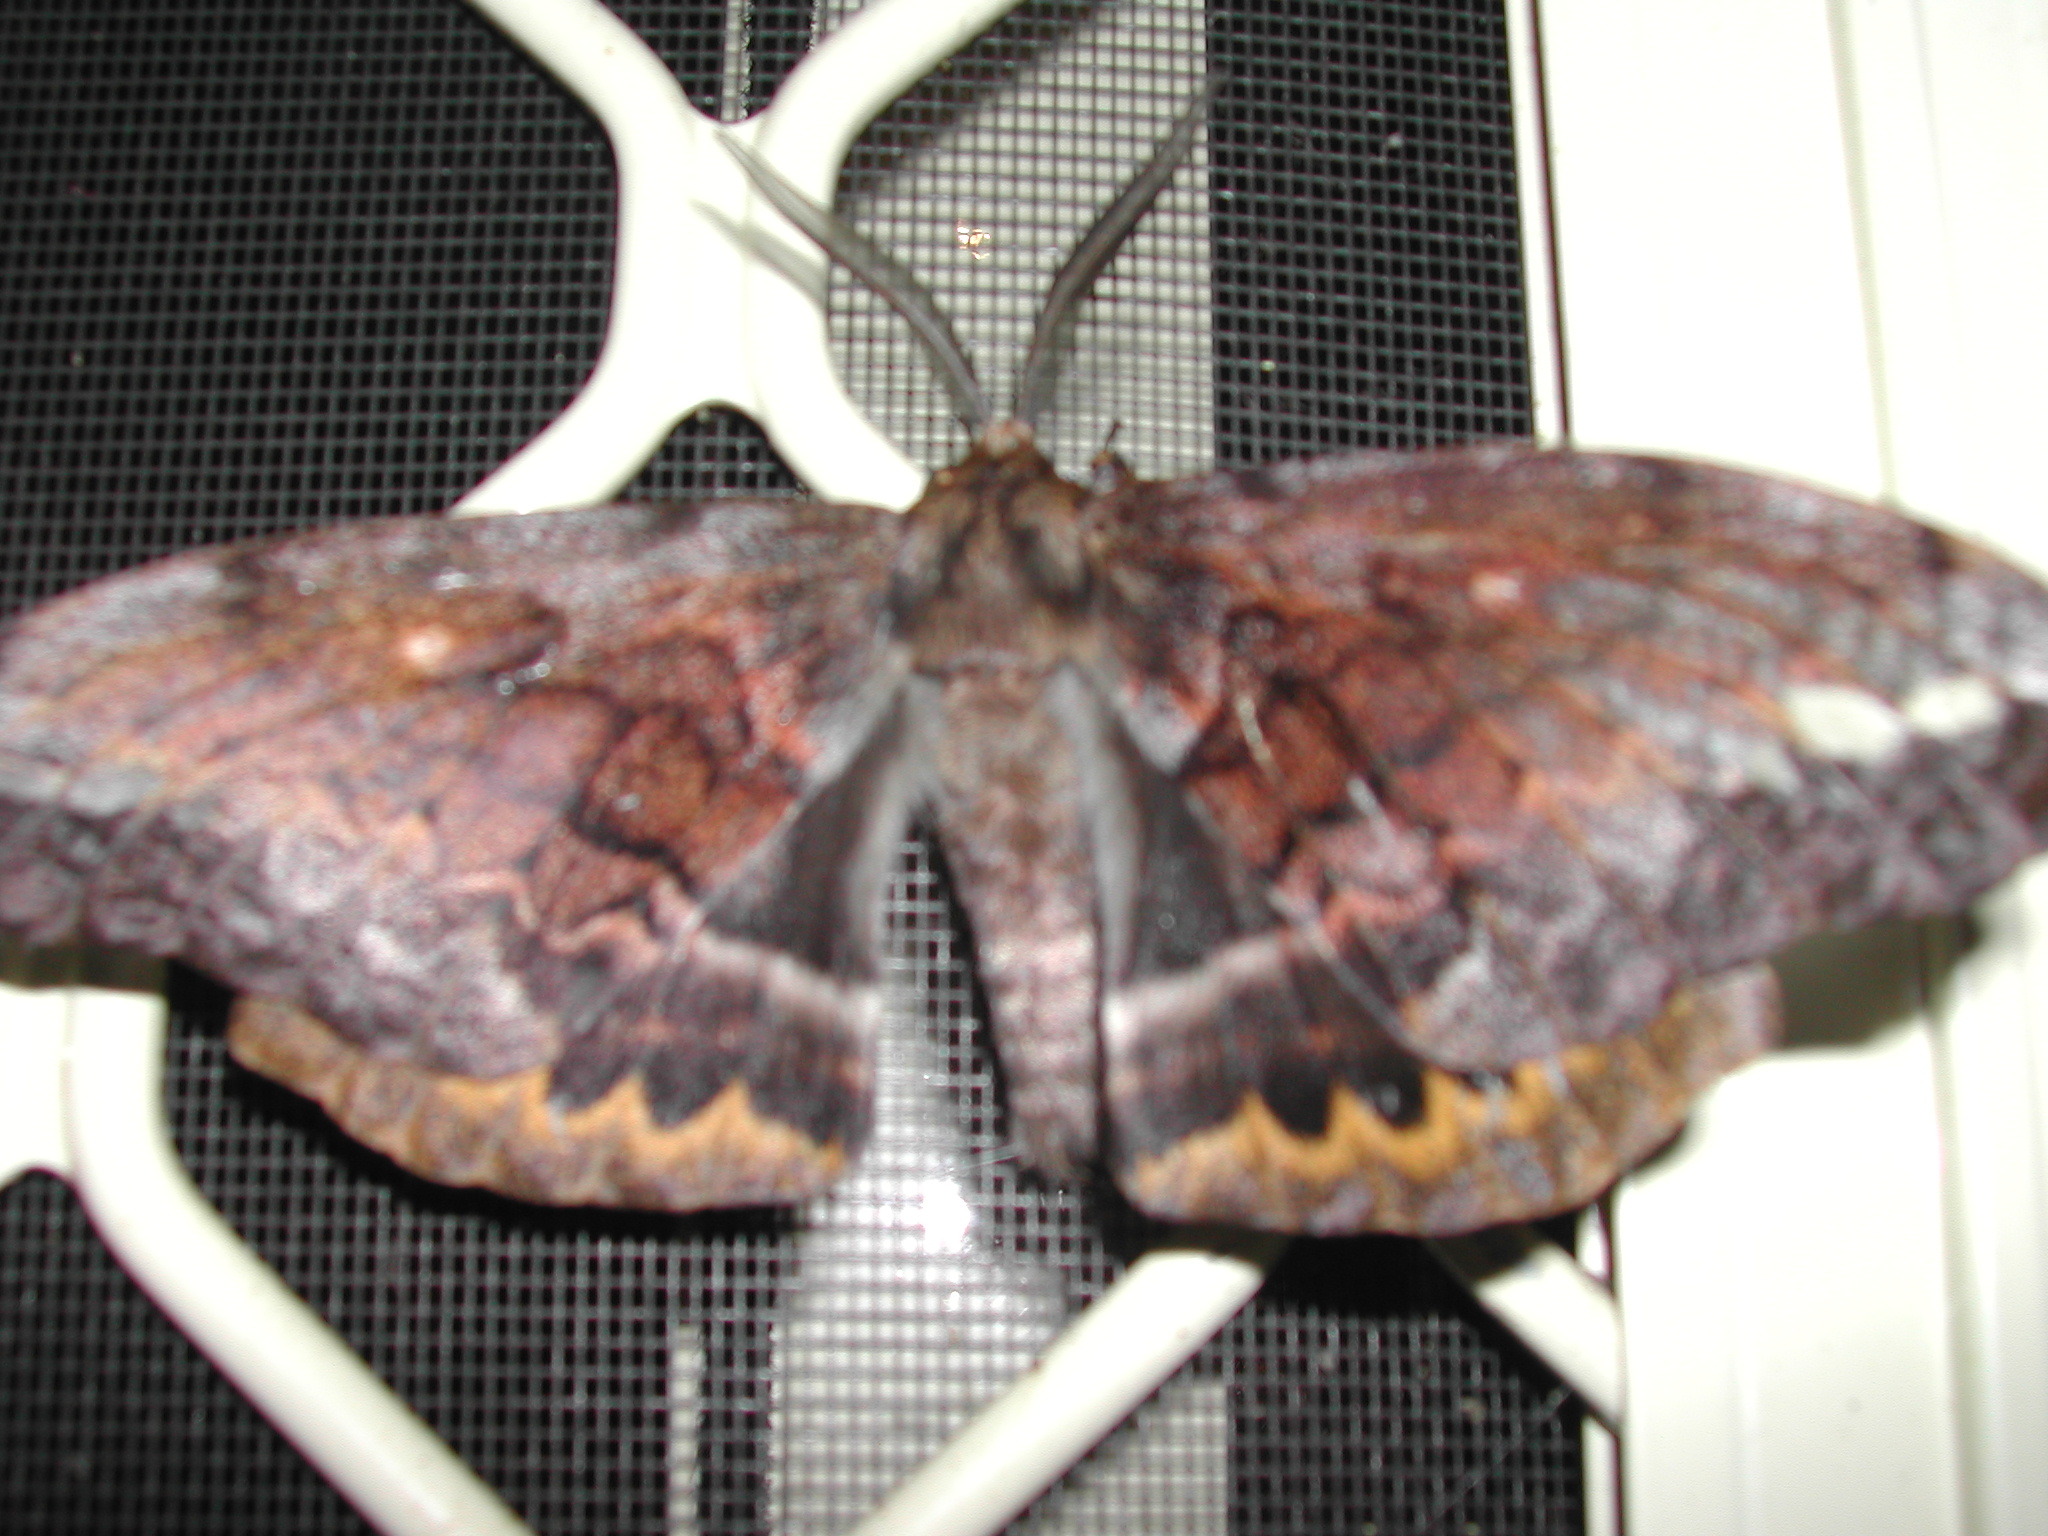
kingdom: Animalia
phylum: Arthropoda
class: Insecta
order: Lepidoptera
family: Anthelidae
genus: Chelepteryx
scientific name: Chelepteryx collesi
